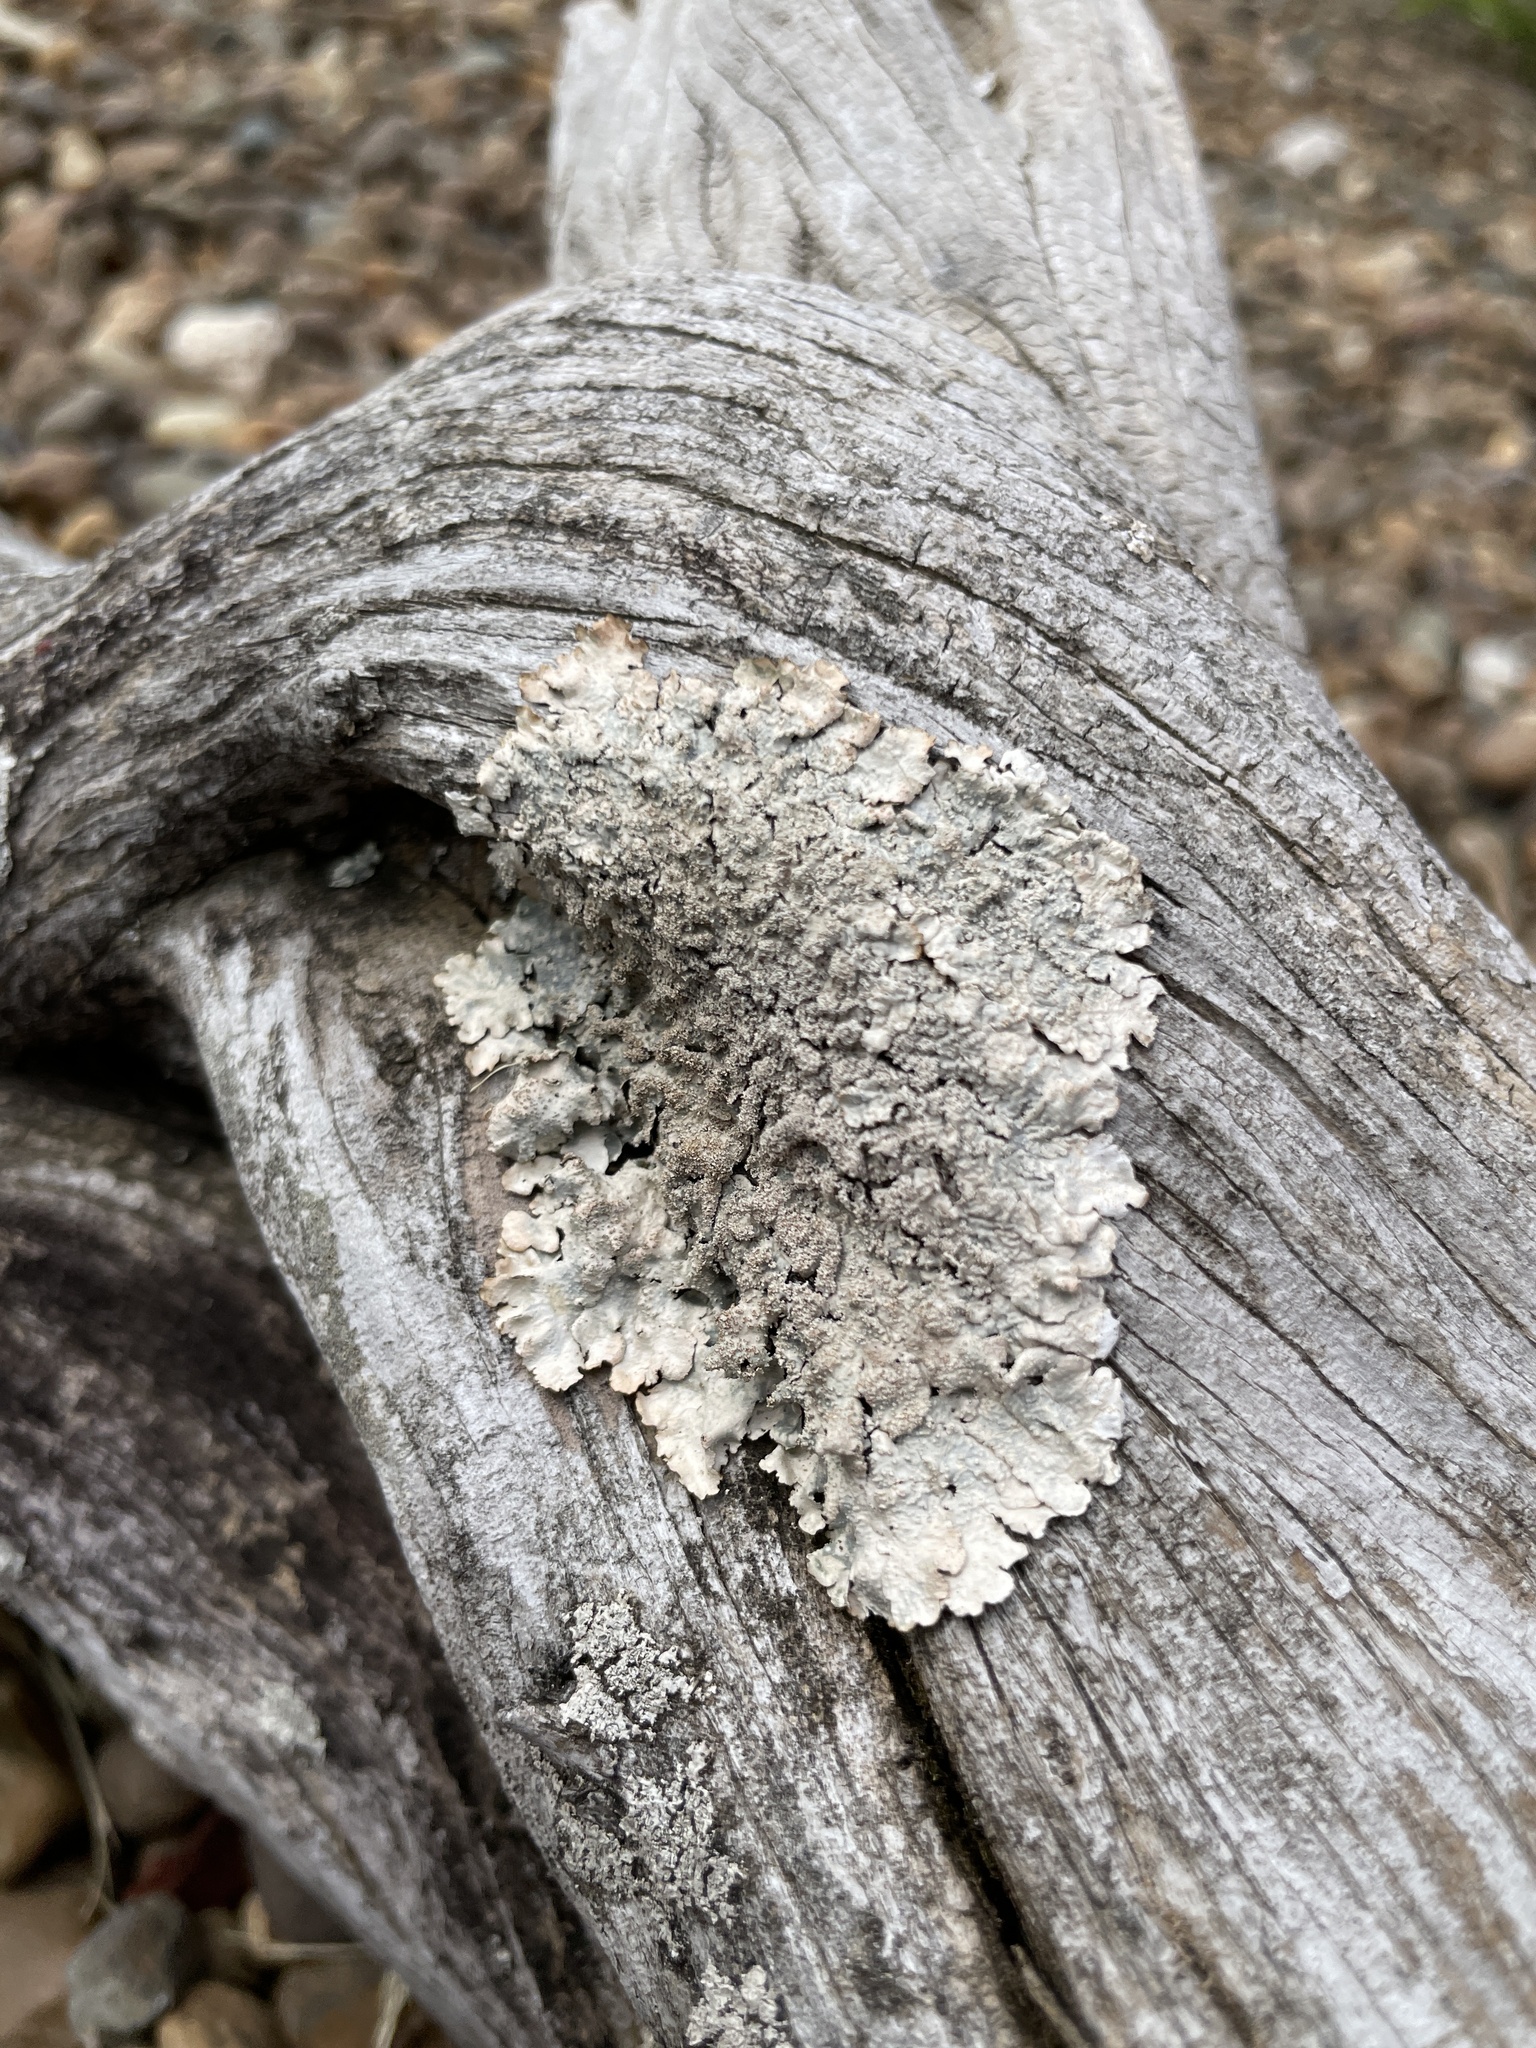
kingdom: Fungi
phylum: Ascomycota
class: Lecanoromycetes
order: Lecanorales
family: Parmeliaceae
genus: Flavoparmelia
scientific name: Flavoparmelia caperata
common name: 40-mile per hour lichen
